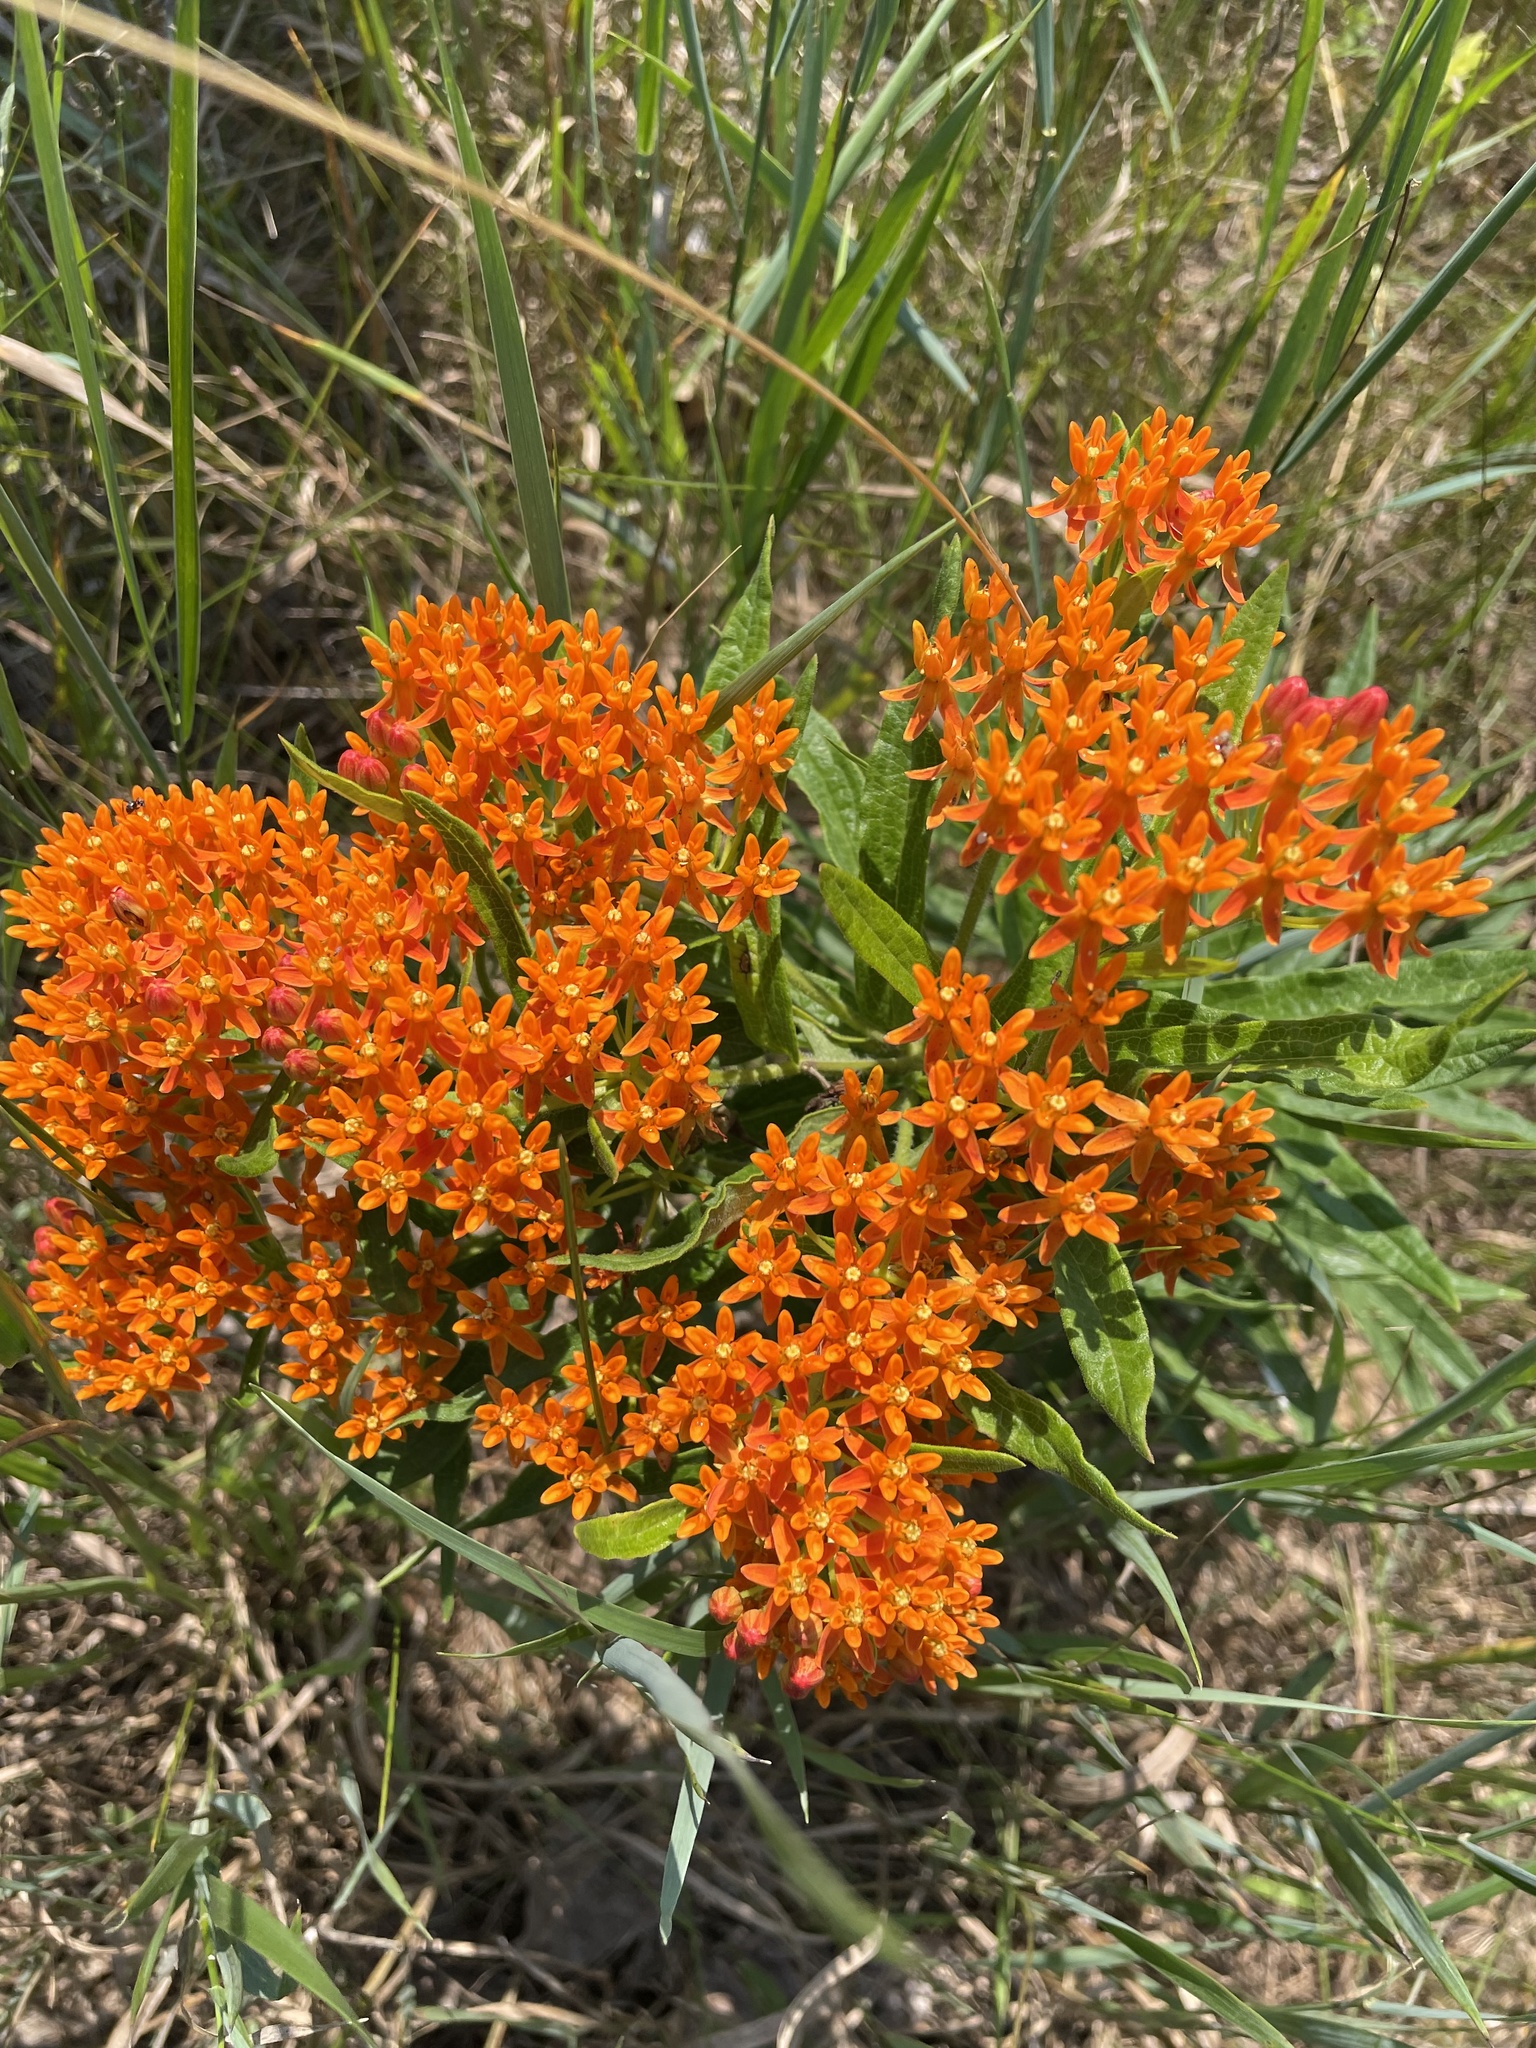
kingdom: Plantae
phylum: Tracheophyta
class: Magnoliopsida
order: Gentianales
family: Apocynaceae
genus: Asclepias
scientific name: Asclepias tuberosa
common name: Butterfly milkweed
